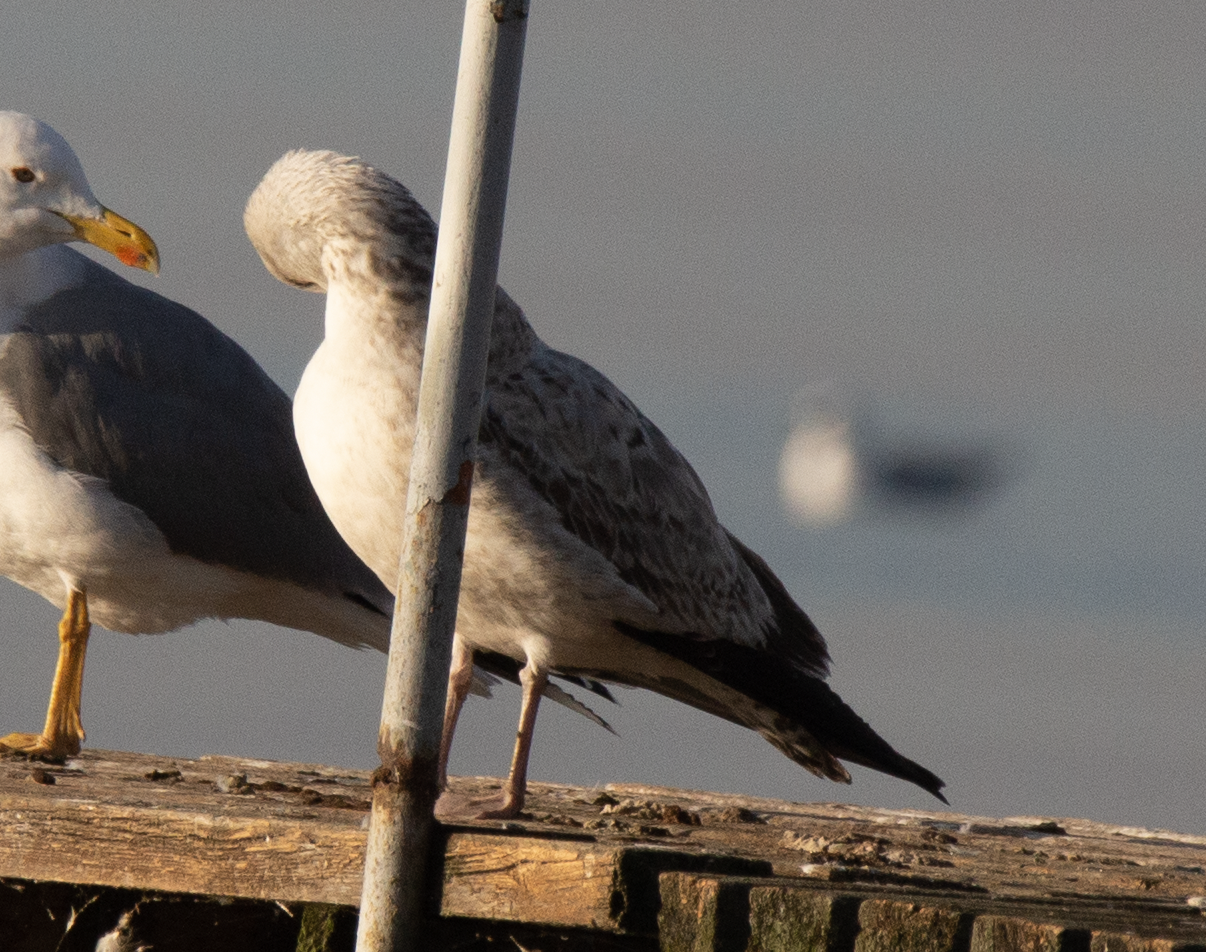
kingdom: Animalia
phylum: Chordata
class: Aves
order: Charadriiformes
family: Laridae
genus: Larus
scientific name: Larus michahellis
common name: Yellow-legged gull
